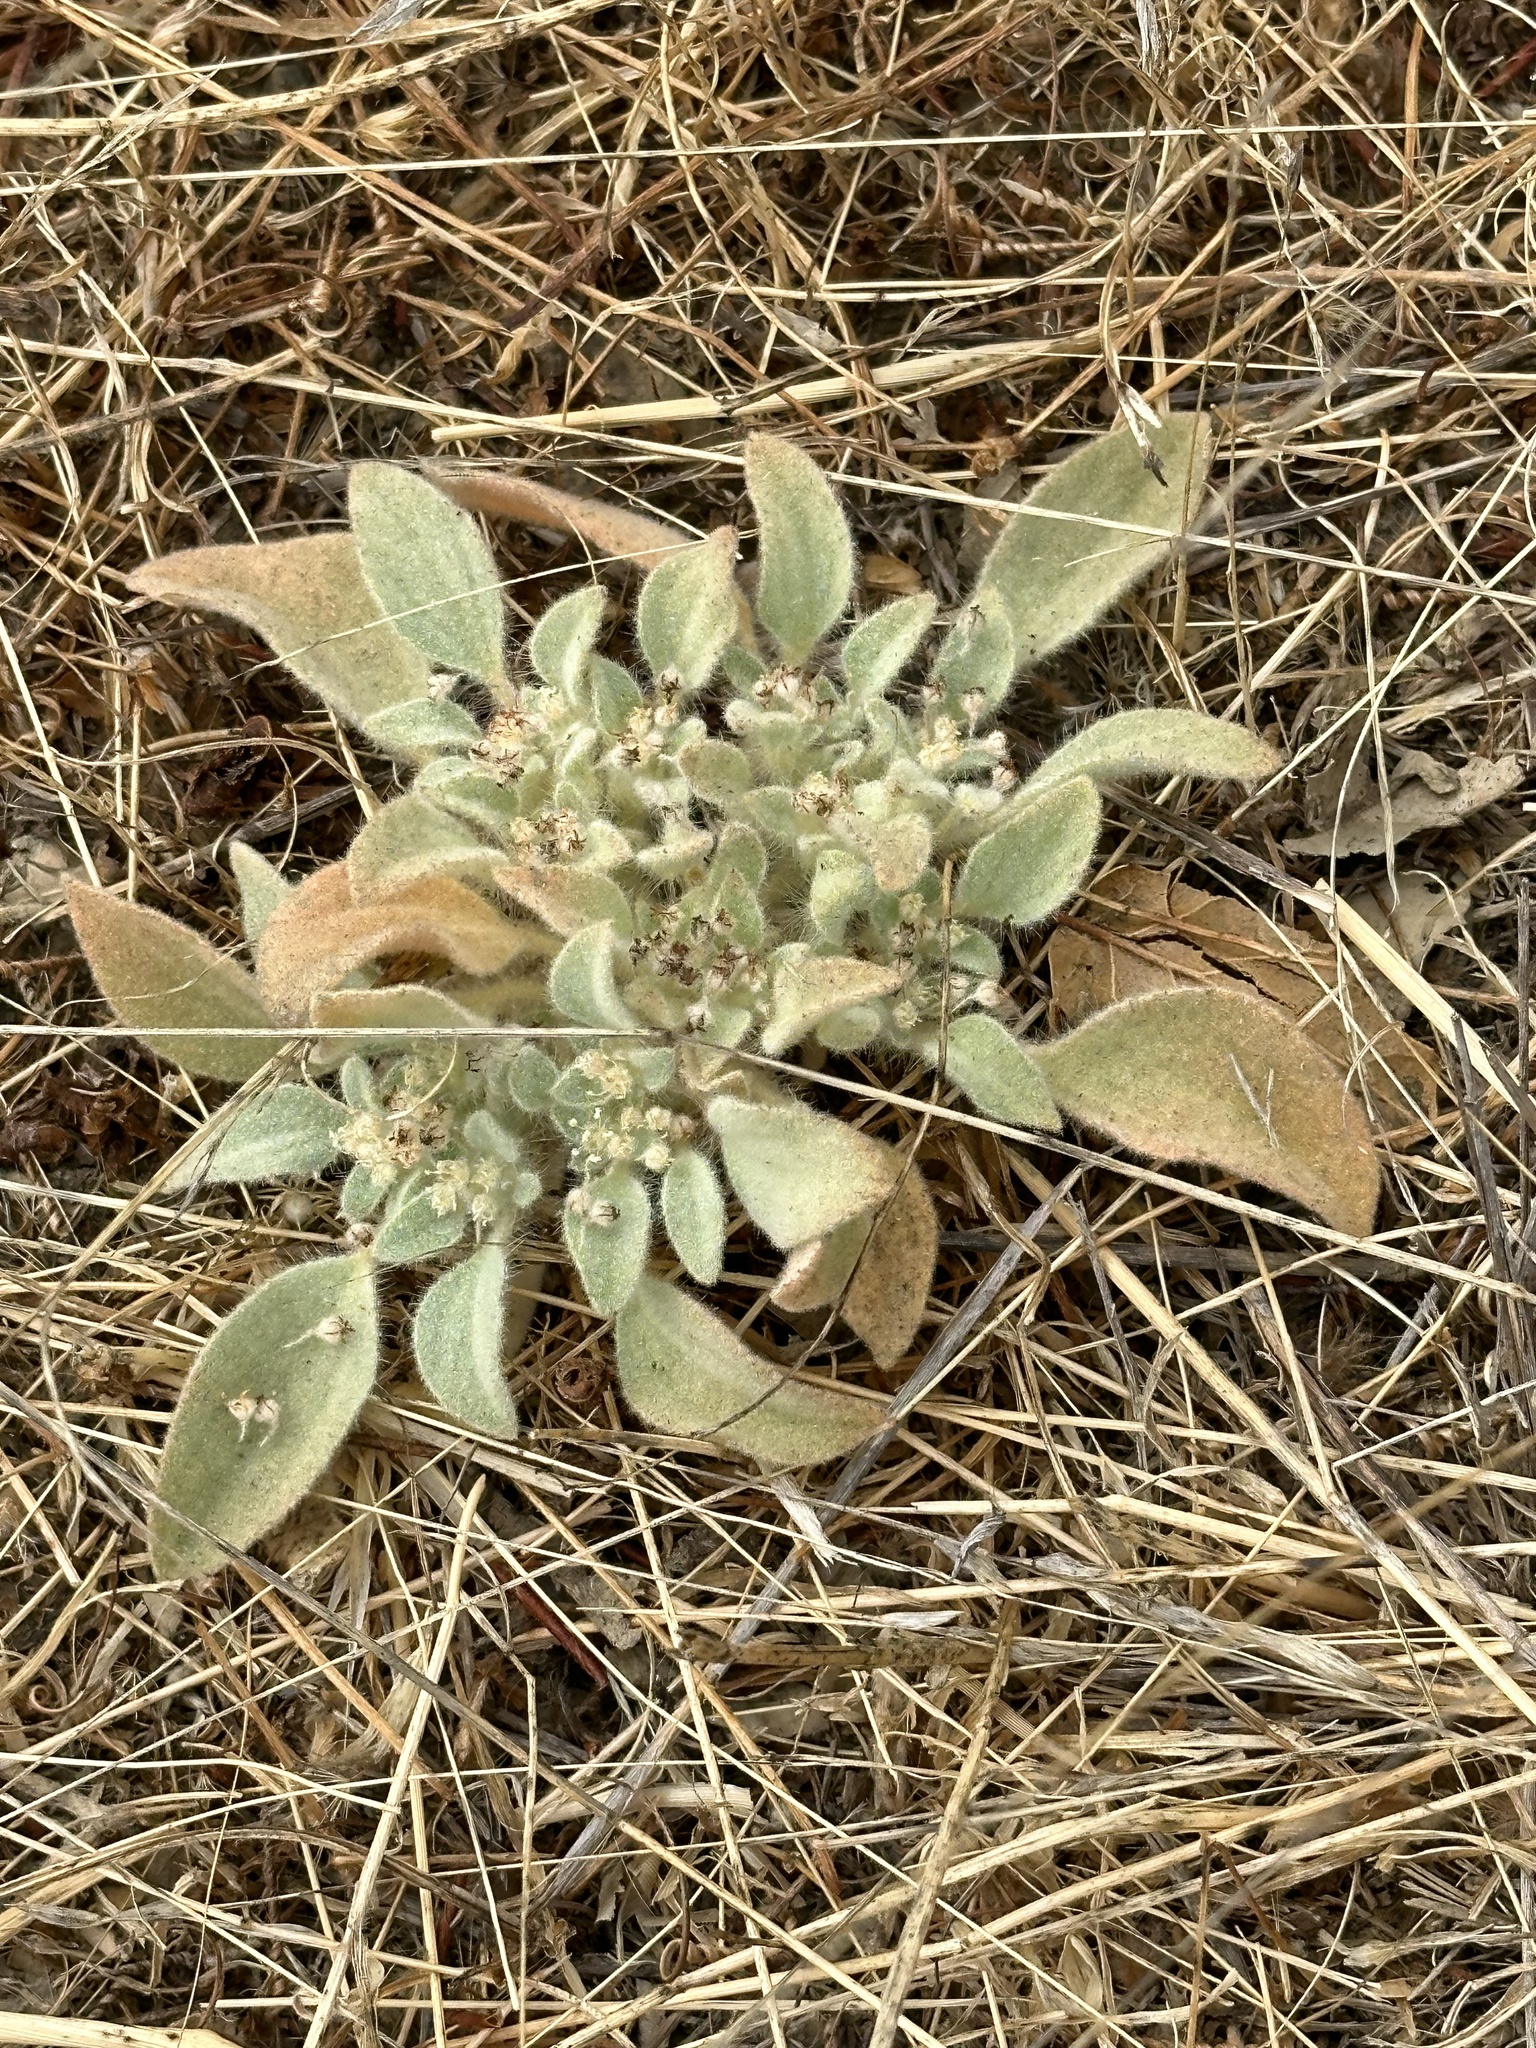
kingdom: Plantae
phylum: Tracheophyta
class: Magnoliopsida
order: Malpighiales
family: Euphorbiaceae
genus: Croton
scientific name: Croton setiger
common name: Dove weed
